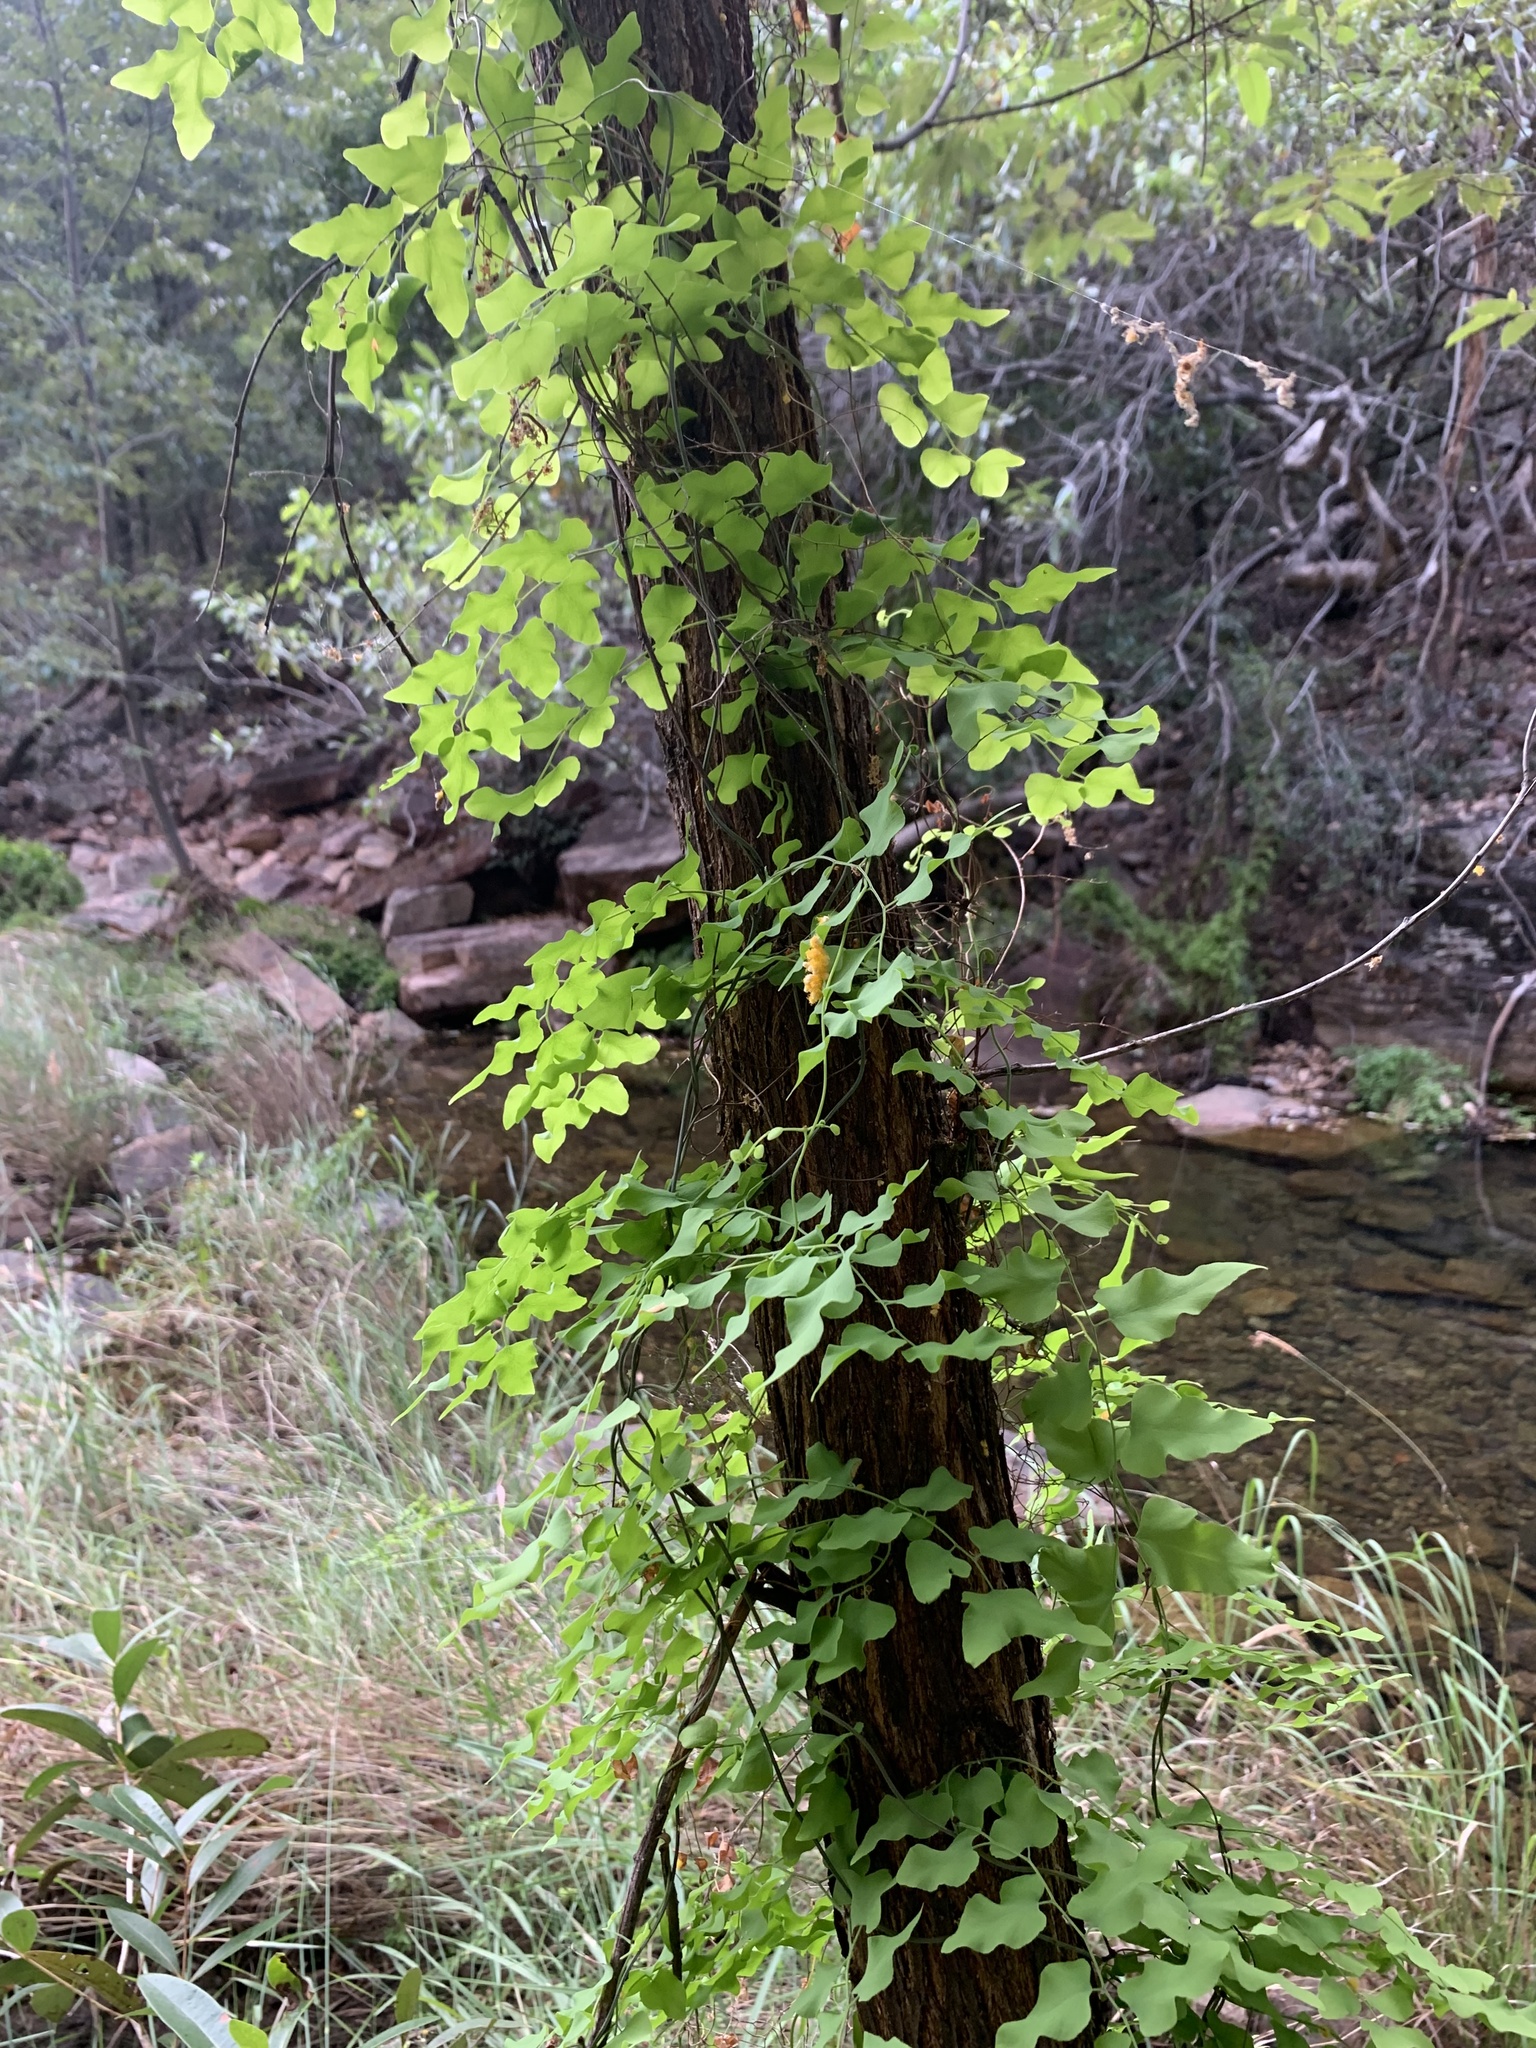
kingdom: Plantae
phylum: Tracheophyta
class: Polypodiopsida
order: Schizaeales
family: Lygodiaceae
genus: Lygodium
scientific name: Lygodium microphyllum
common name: Small-leaf climbing fern
